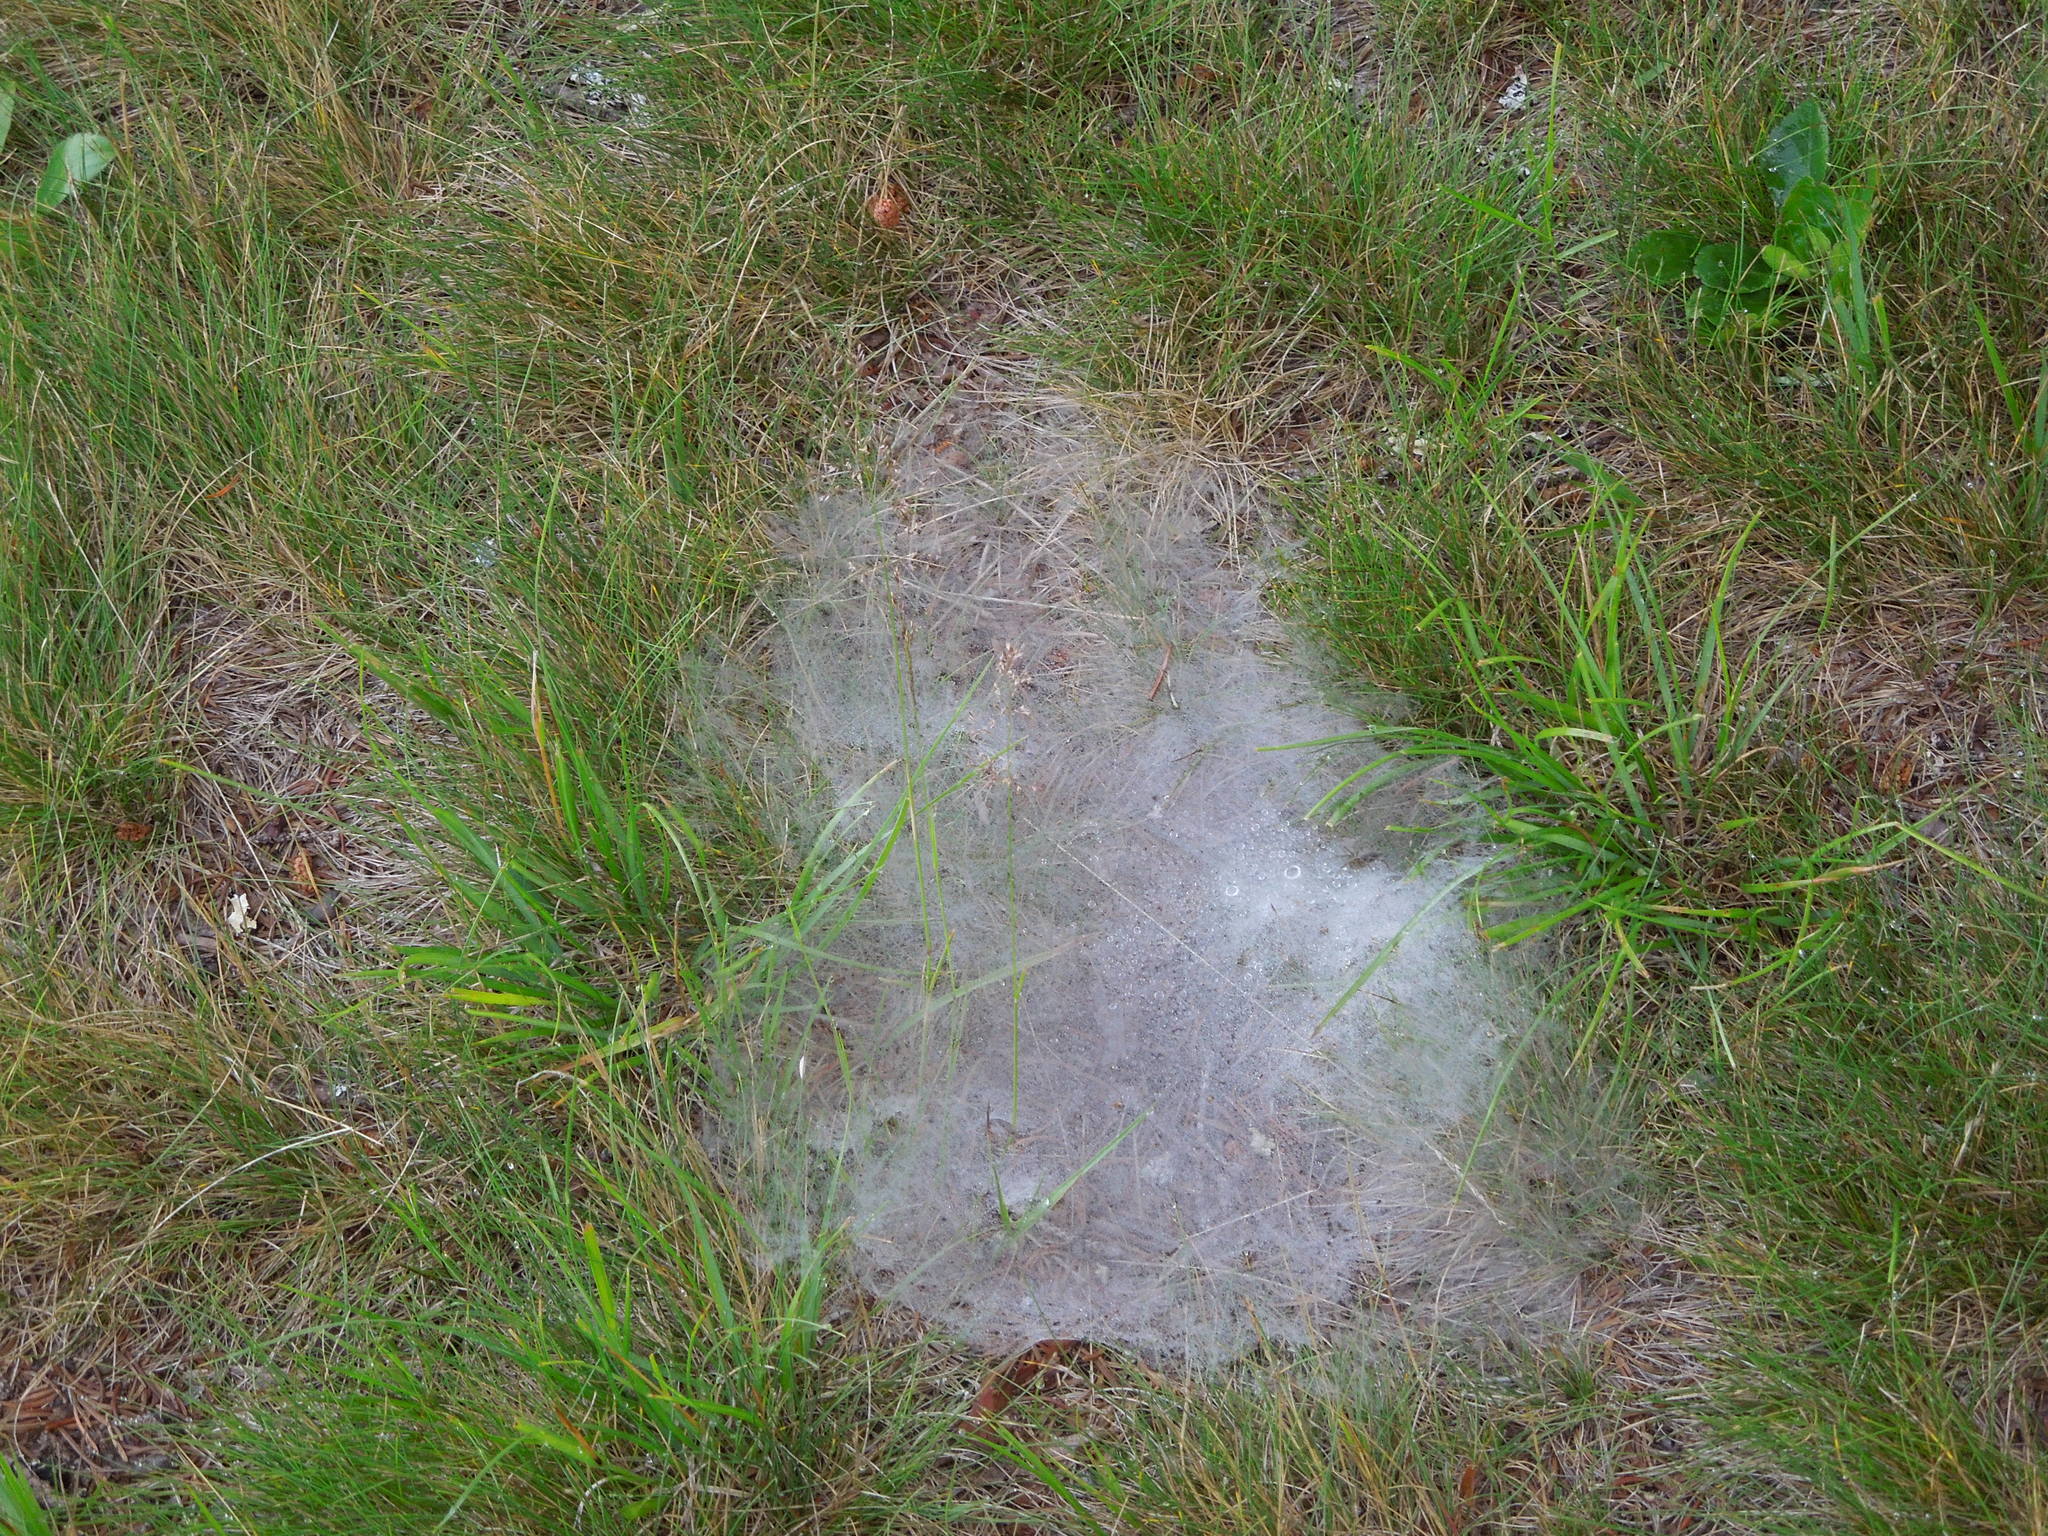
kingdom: Animalia
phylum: Arthropoda
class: Arachnida
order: Araneae
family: Agelenidae
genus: Agelenopsis
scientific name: Agelenopsis
